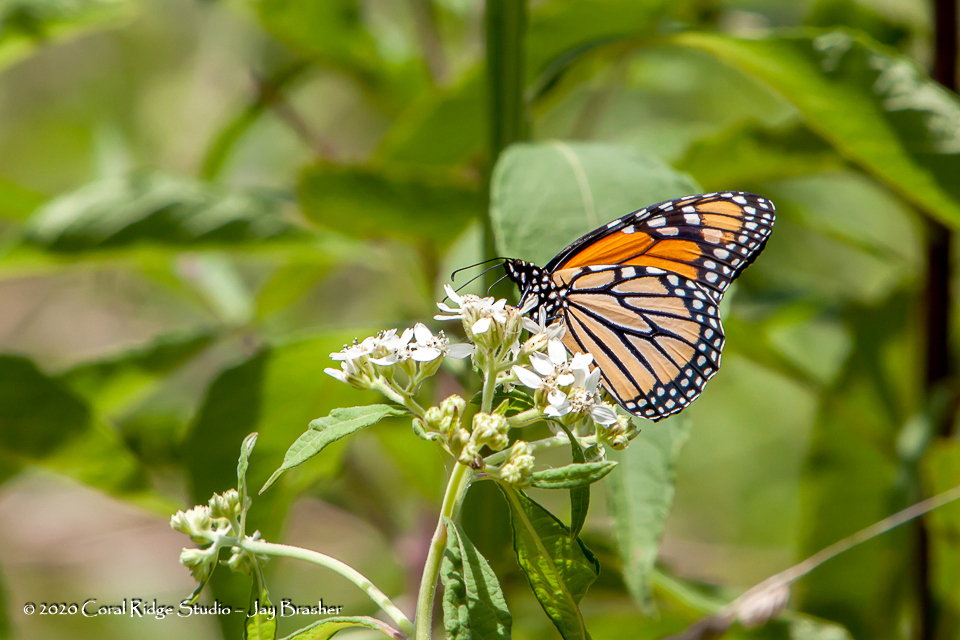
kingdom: Animalia
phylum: Arthropoda
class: Insecta
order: Lepidoptera
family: Nymphalidae
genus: Danaus
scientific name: Danaus plexippus
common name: Monarch
